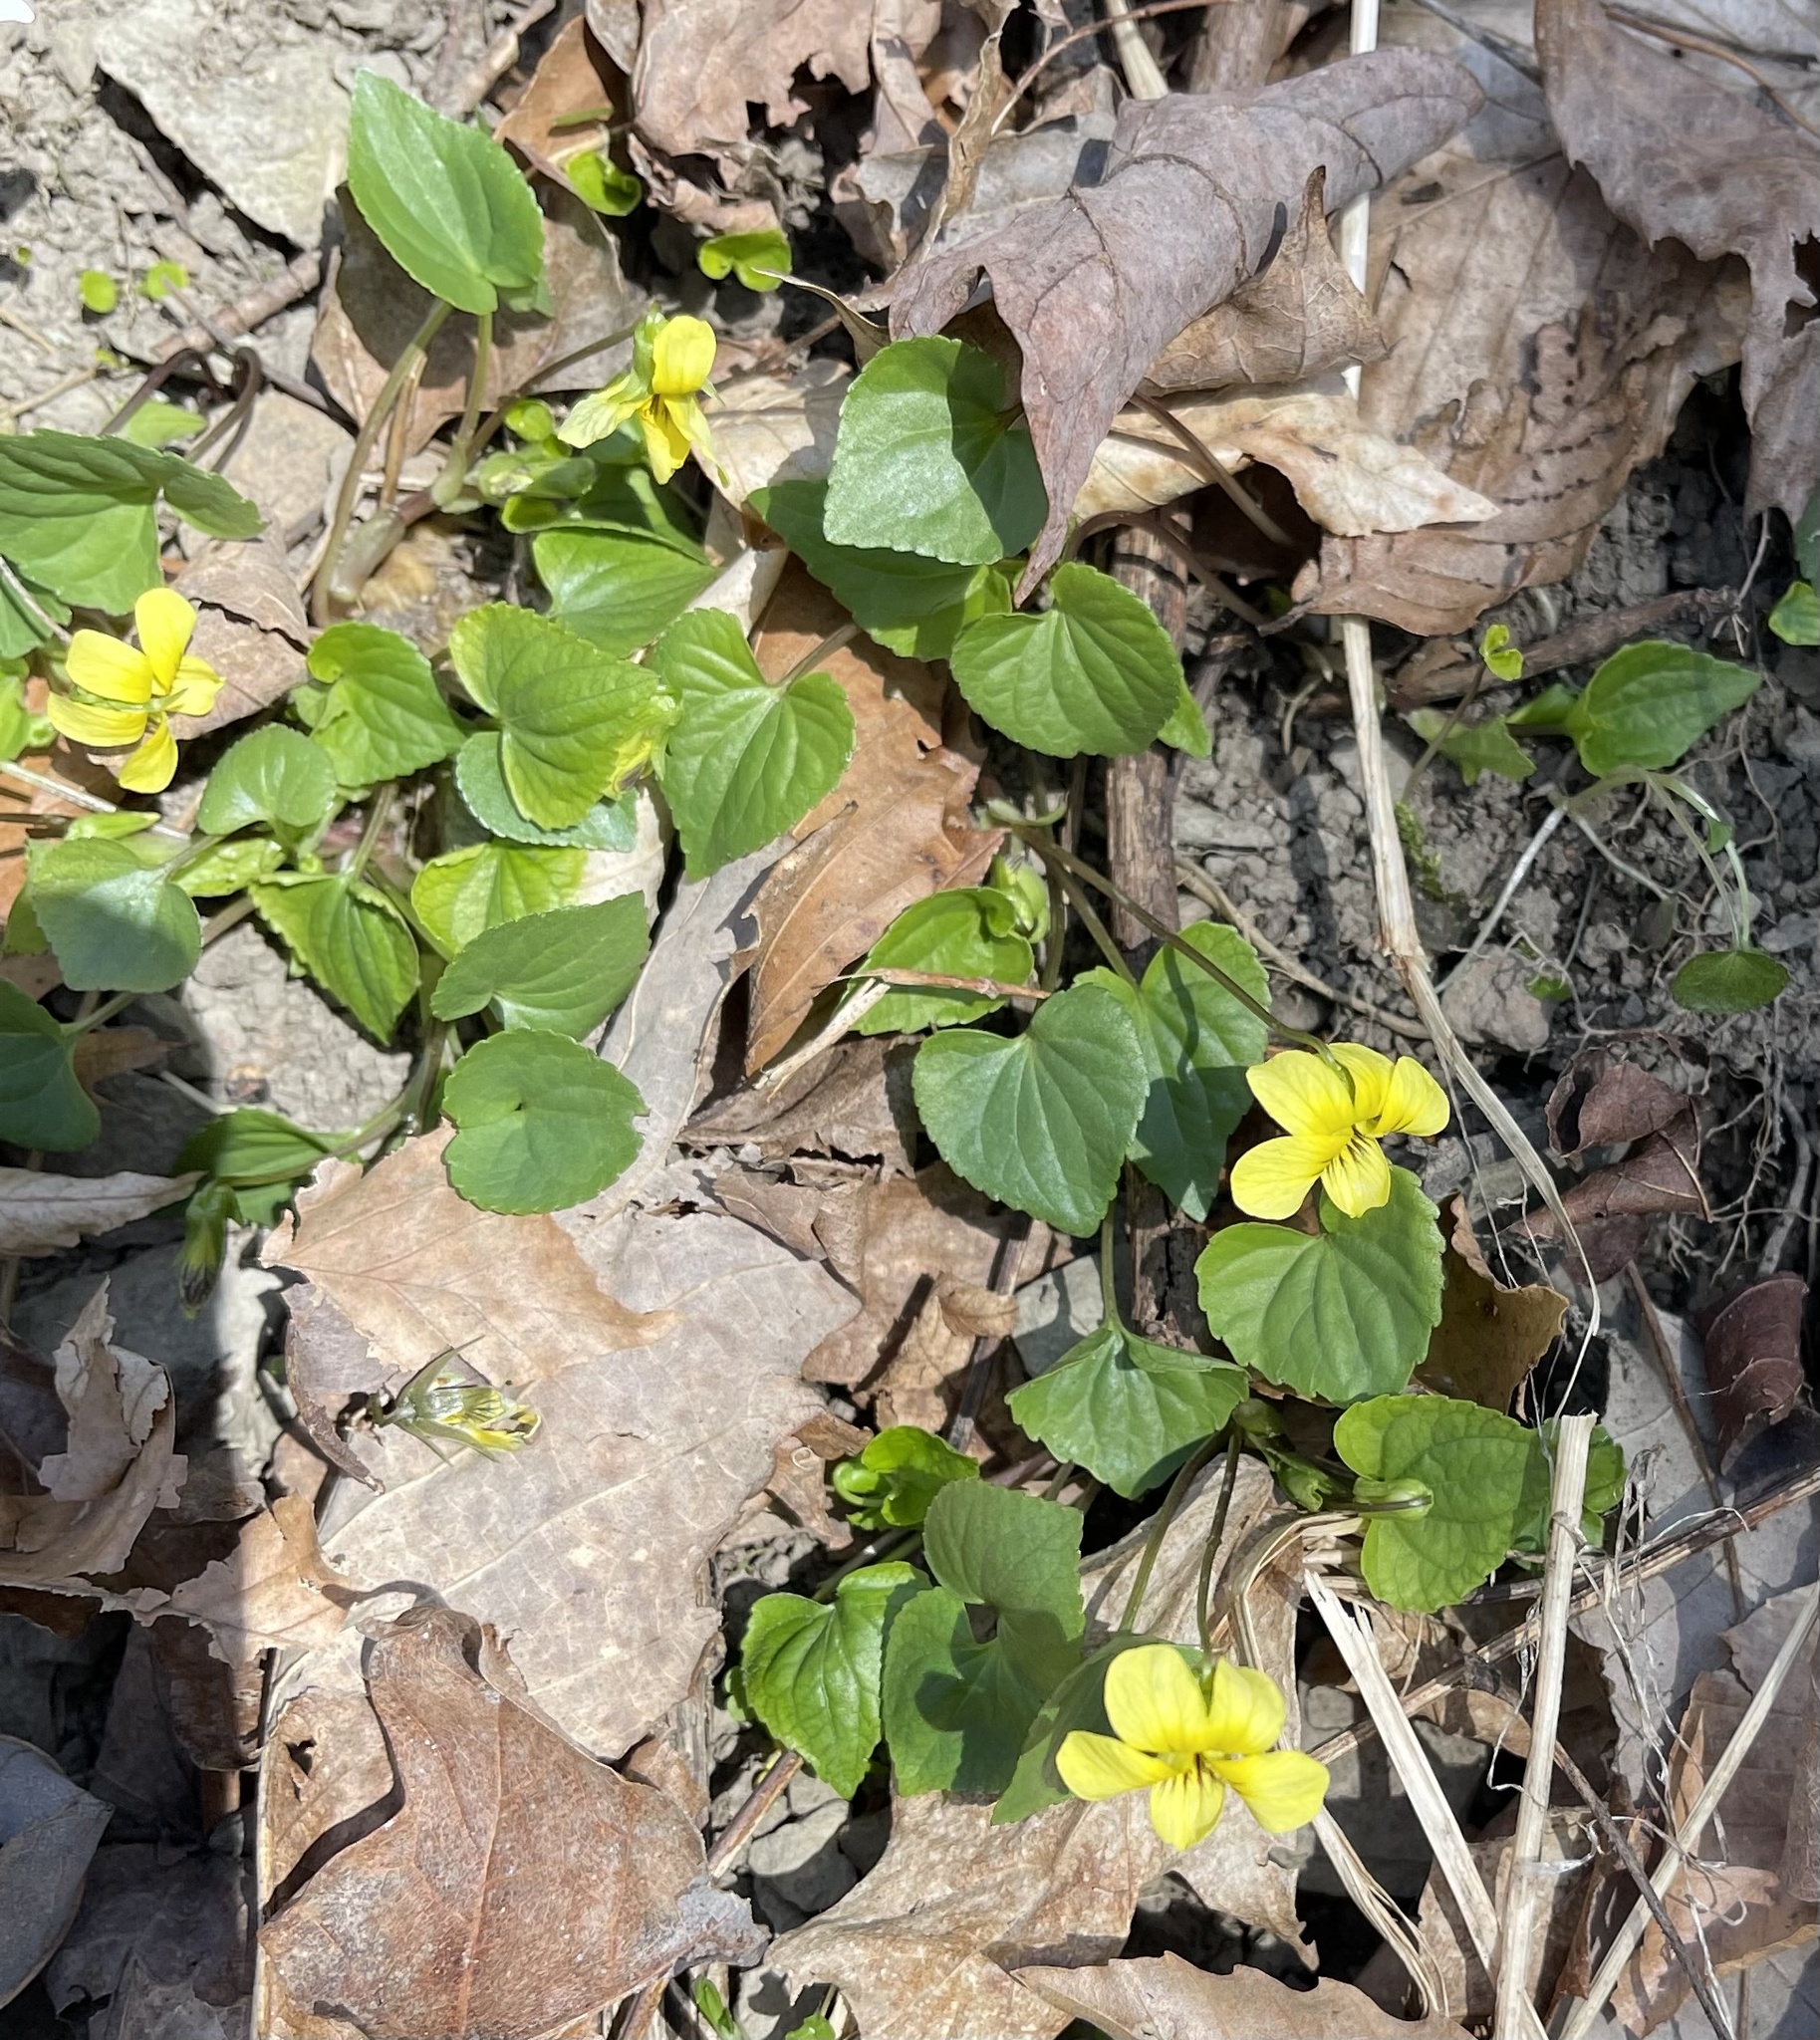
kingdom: Plantae
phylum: Tracheophyta
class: Magnoliopsida
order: Malpighiales
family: Violaceae
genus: Viola
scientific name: Viola eriocarpa
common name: Smooth yellow violet
